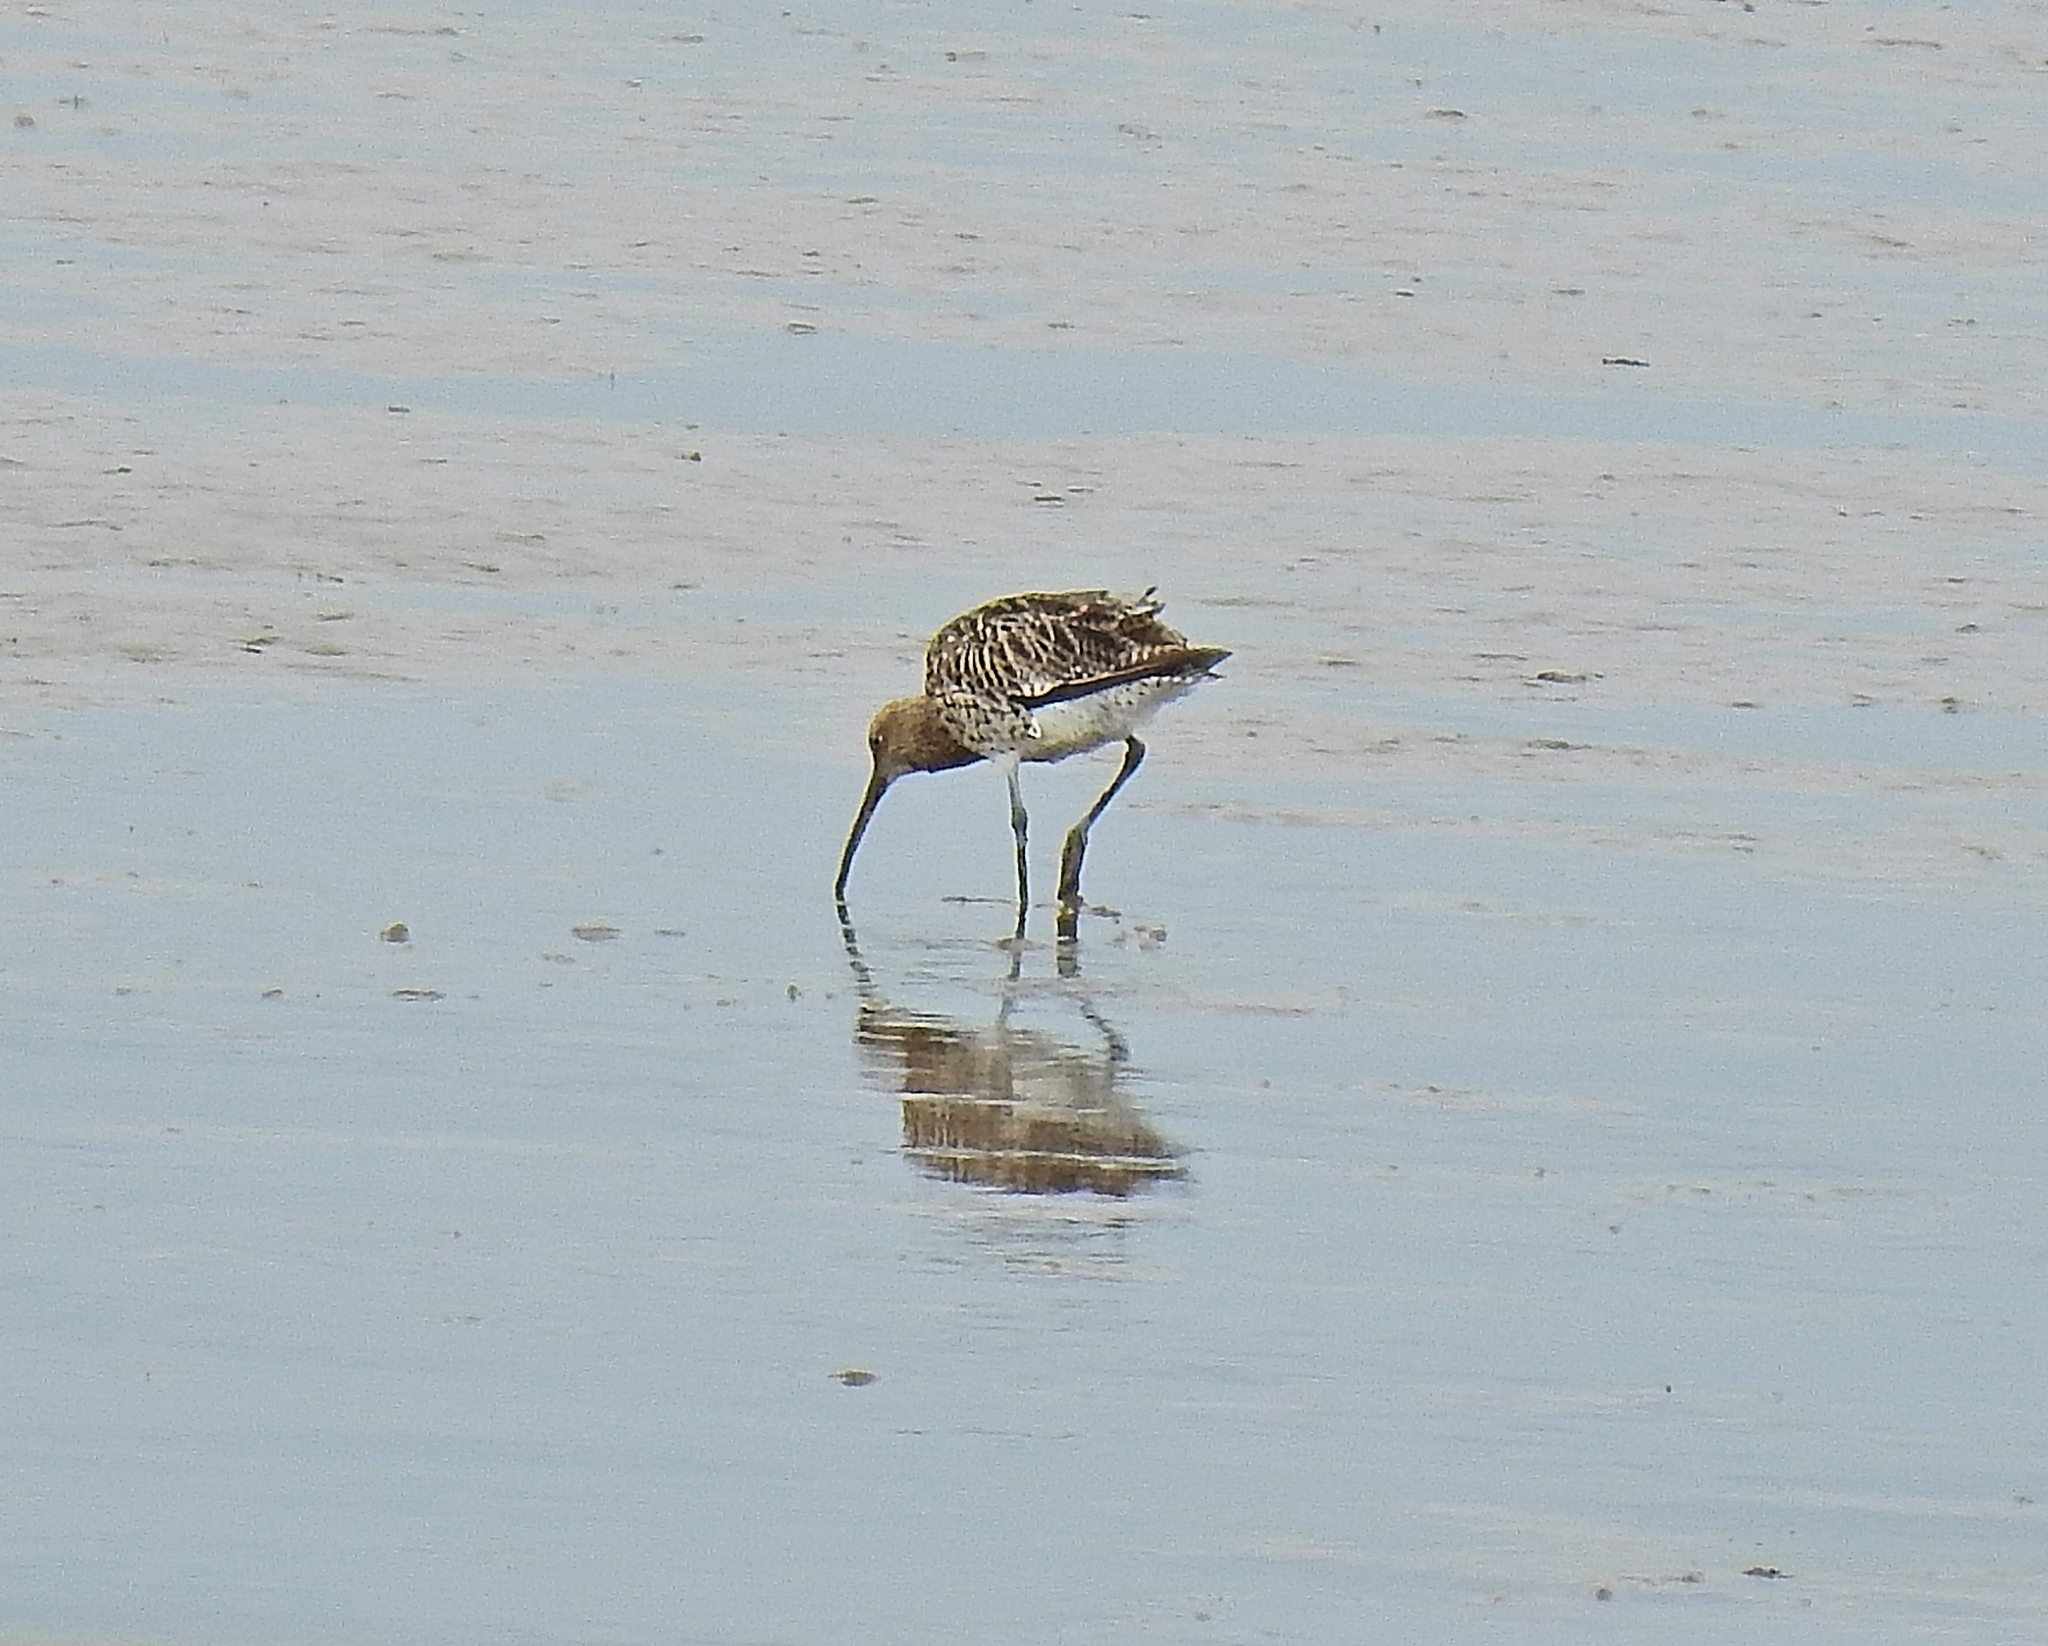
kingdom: Animalia
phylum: Chordata
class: Aves
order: Charadriiformes
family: Scolopacidae
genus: Numenius
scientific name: Numenius arquata
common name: Eurasian curlew
